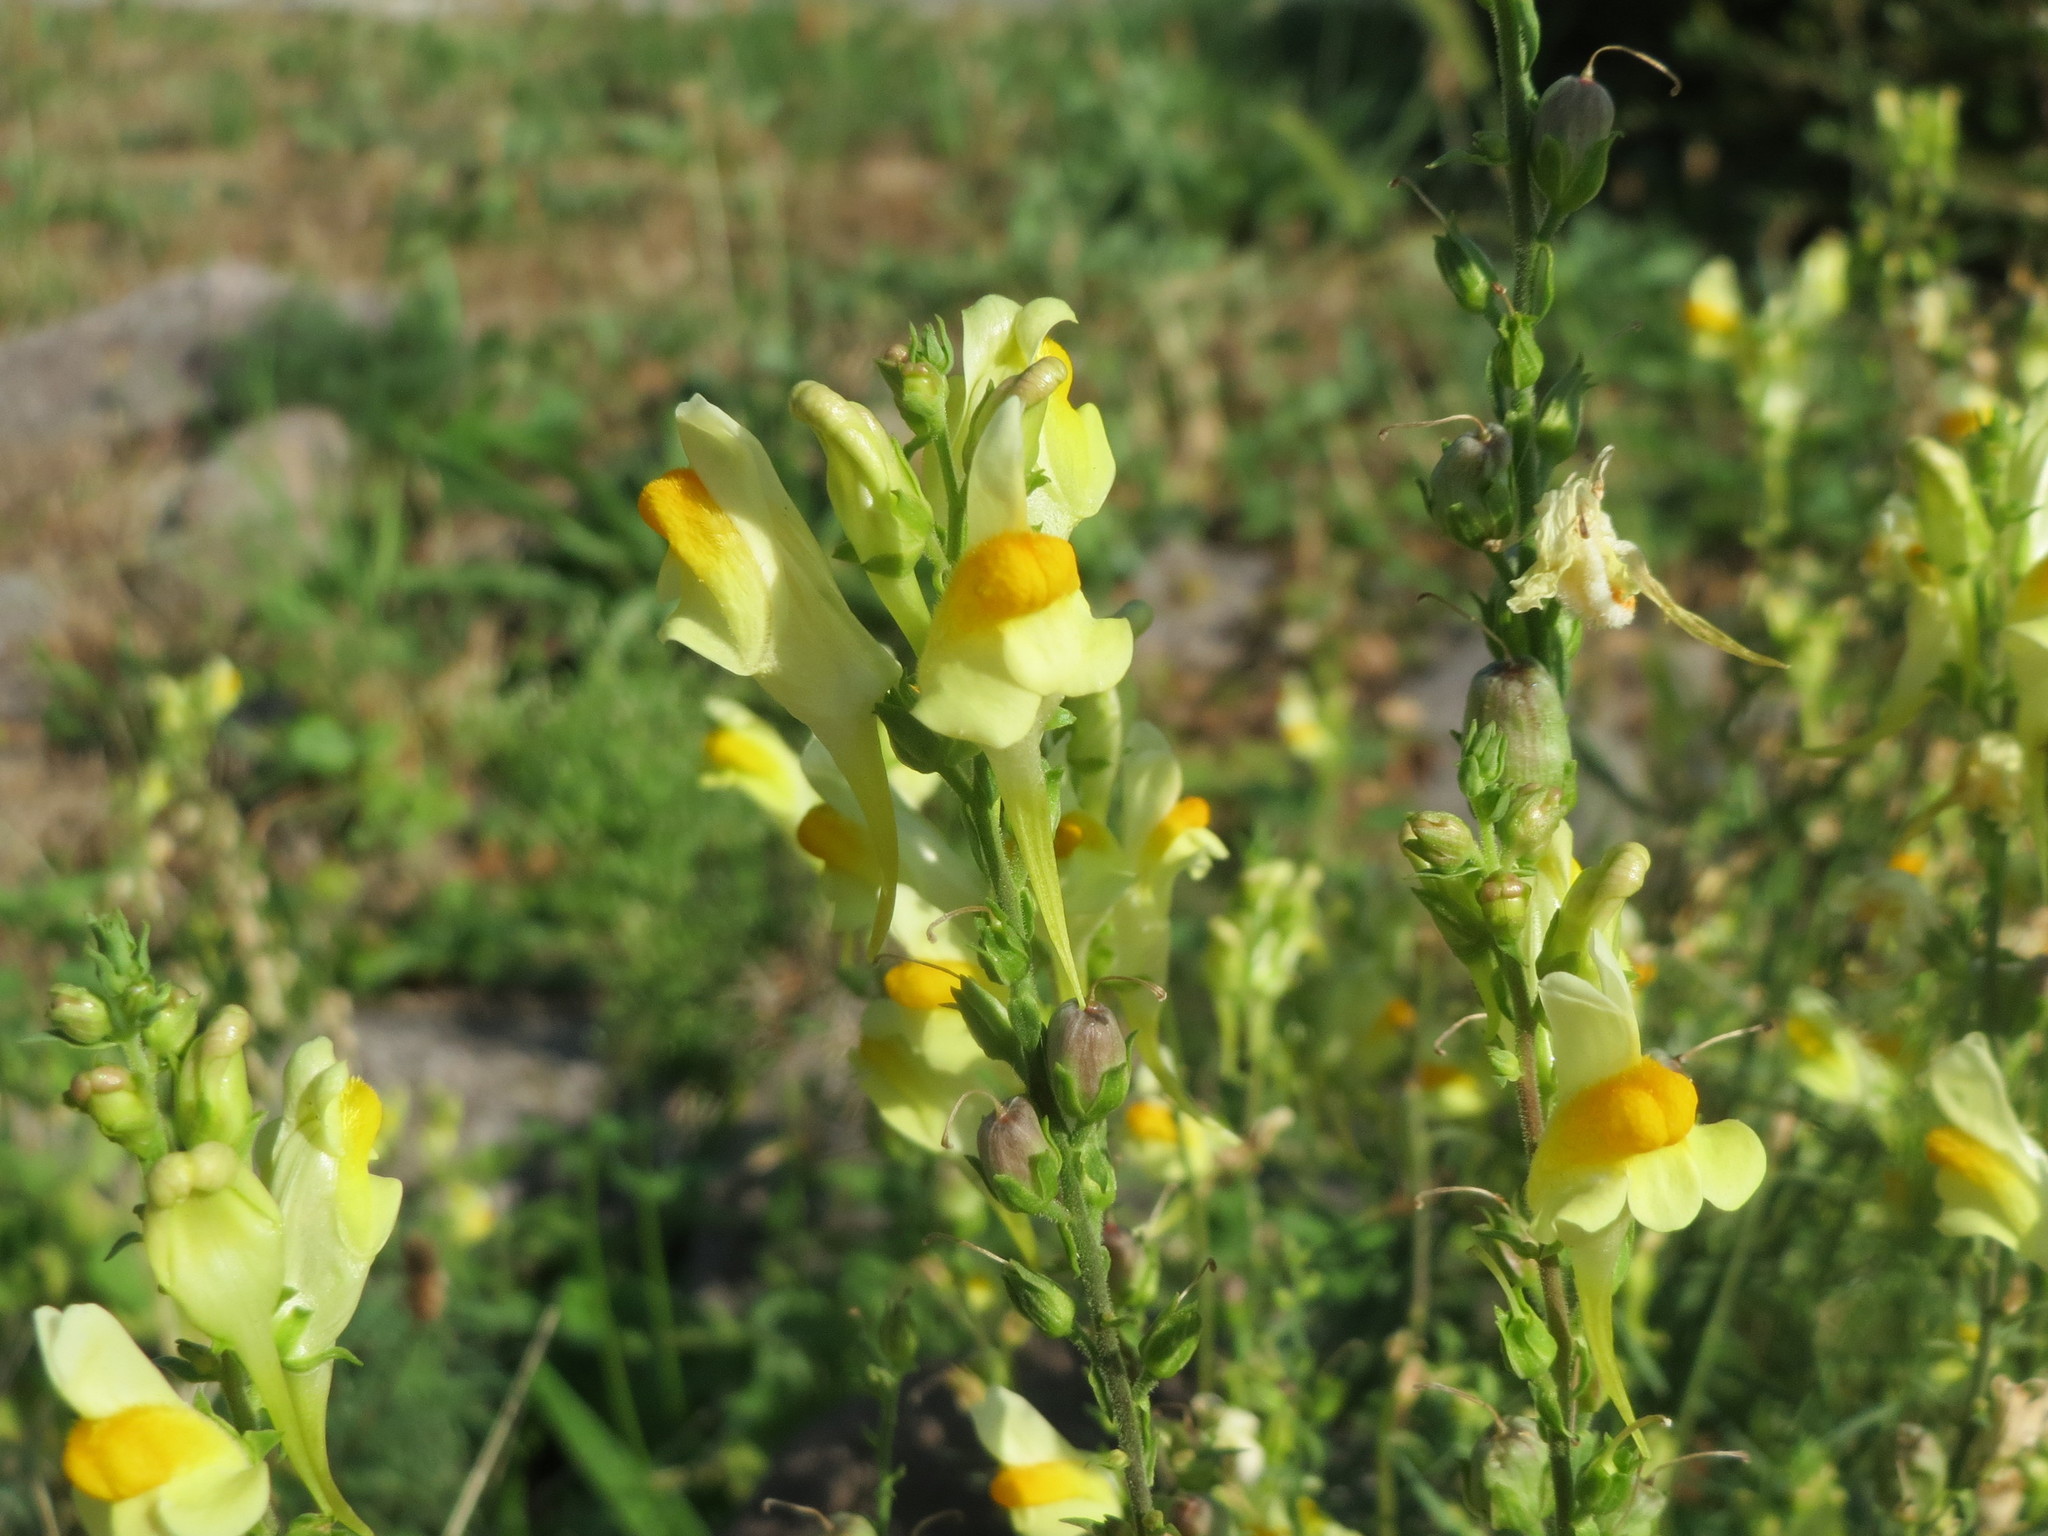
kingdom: Plantae
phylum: Tracheophyta
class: Magnoliopsida
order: Lamiales
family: Plantaginaceae
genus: Linaria
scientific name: Linaria vulgaris
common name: Butter and eggs
